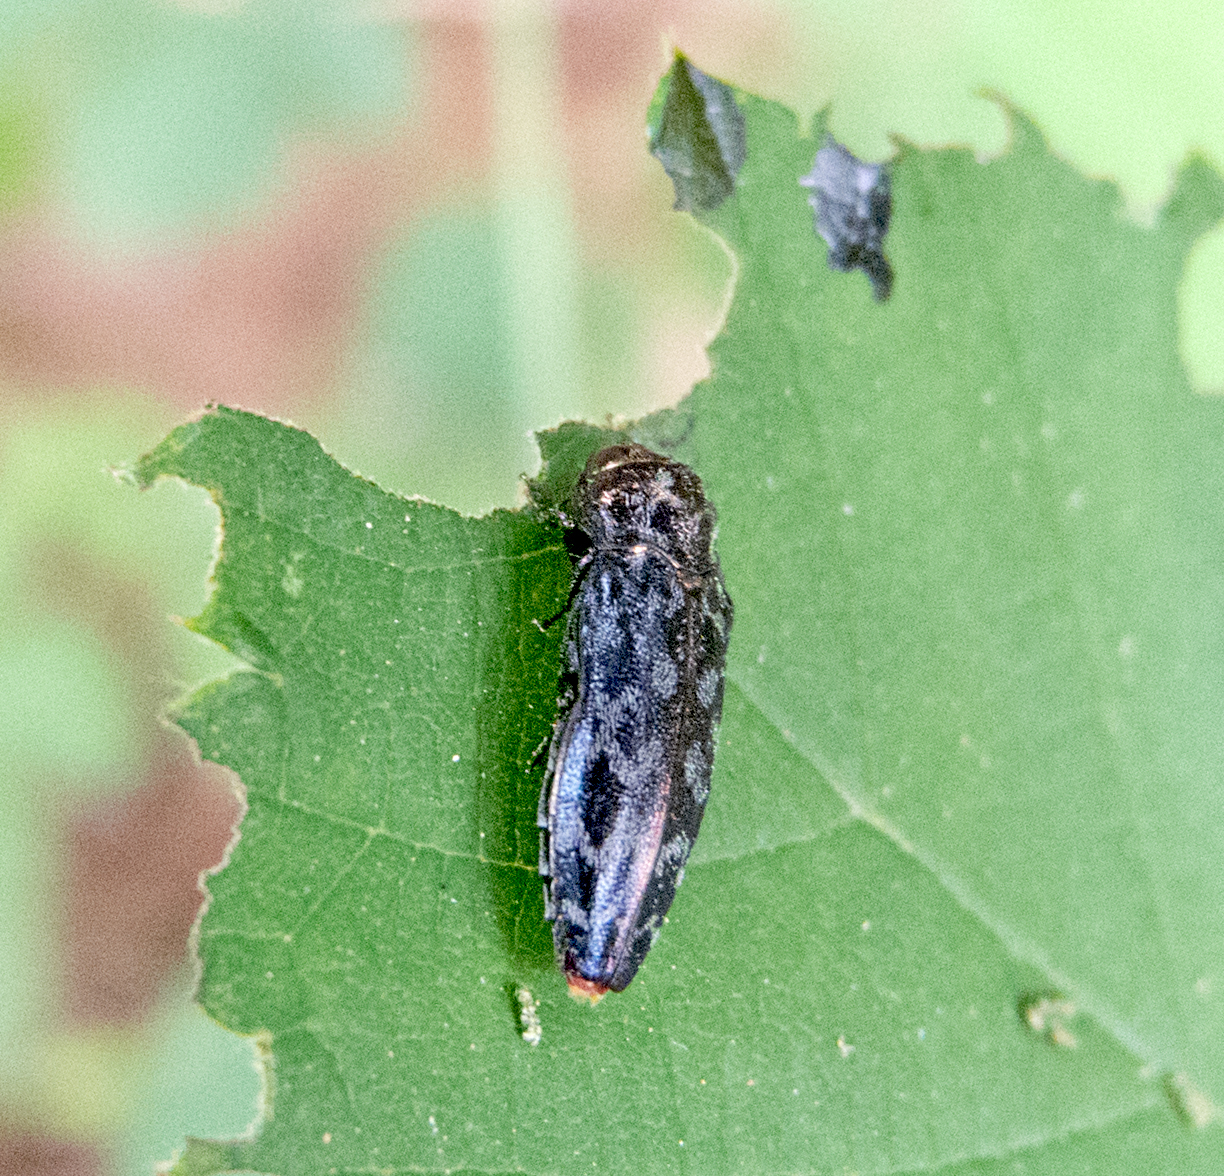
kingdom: Animalia
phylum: Arthropoda
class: Insecta
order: Coleoptera
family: Buprestidae
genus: Coraebus
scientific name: Coraebus rubi
